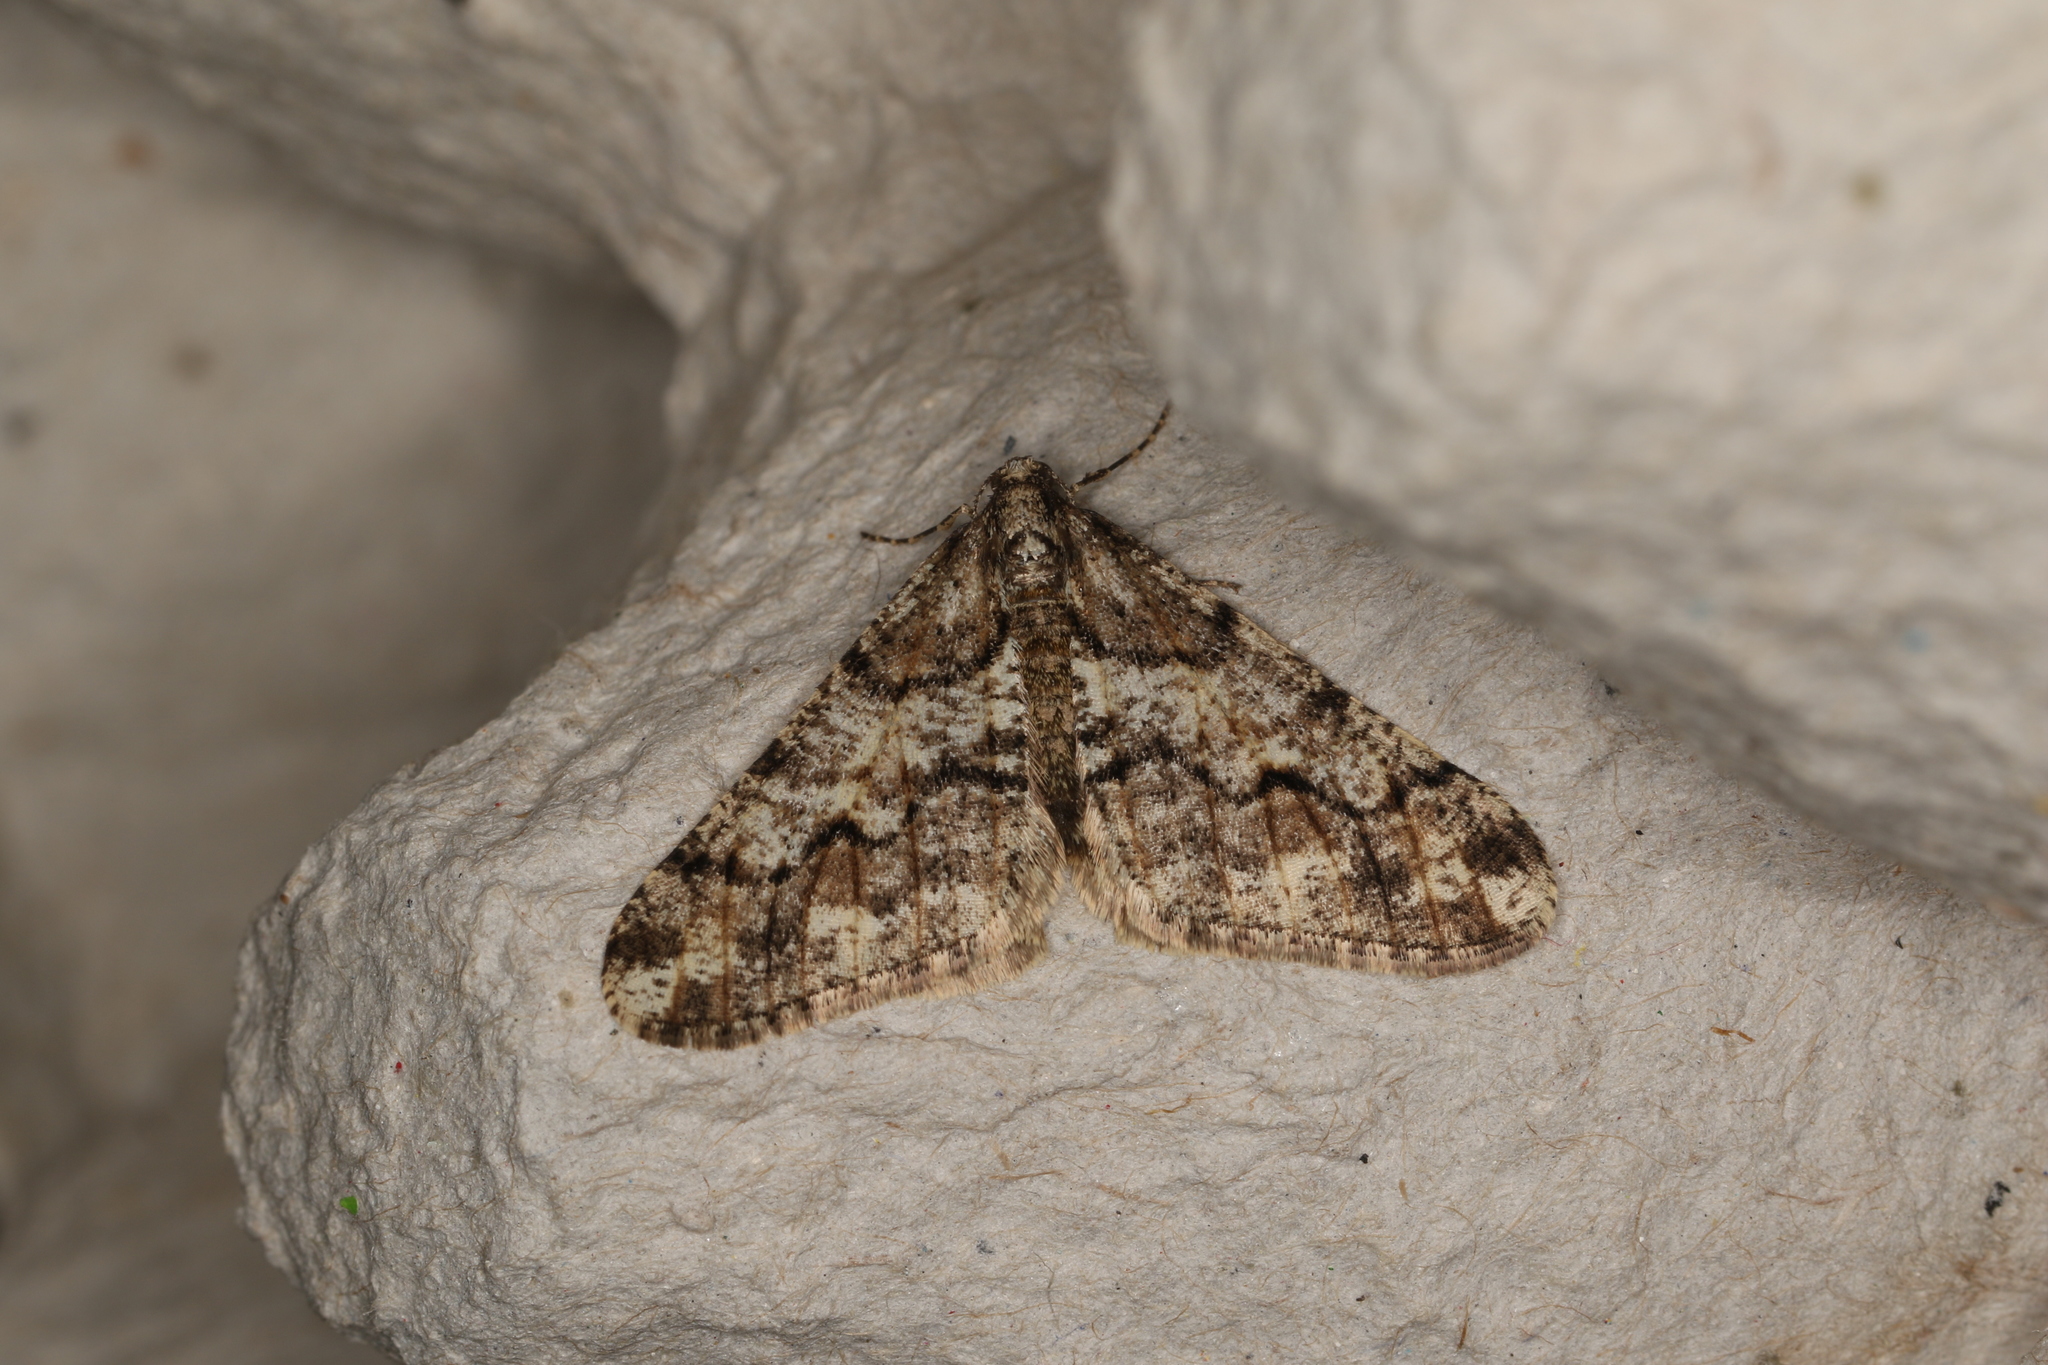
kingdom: Animalia
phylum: Arthropoda
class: Insecta
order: Lepidoptera
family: Geometridae
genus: Agriopis
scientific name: Agriopis leucophaearia
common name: Spring usher
